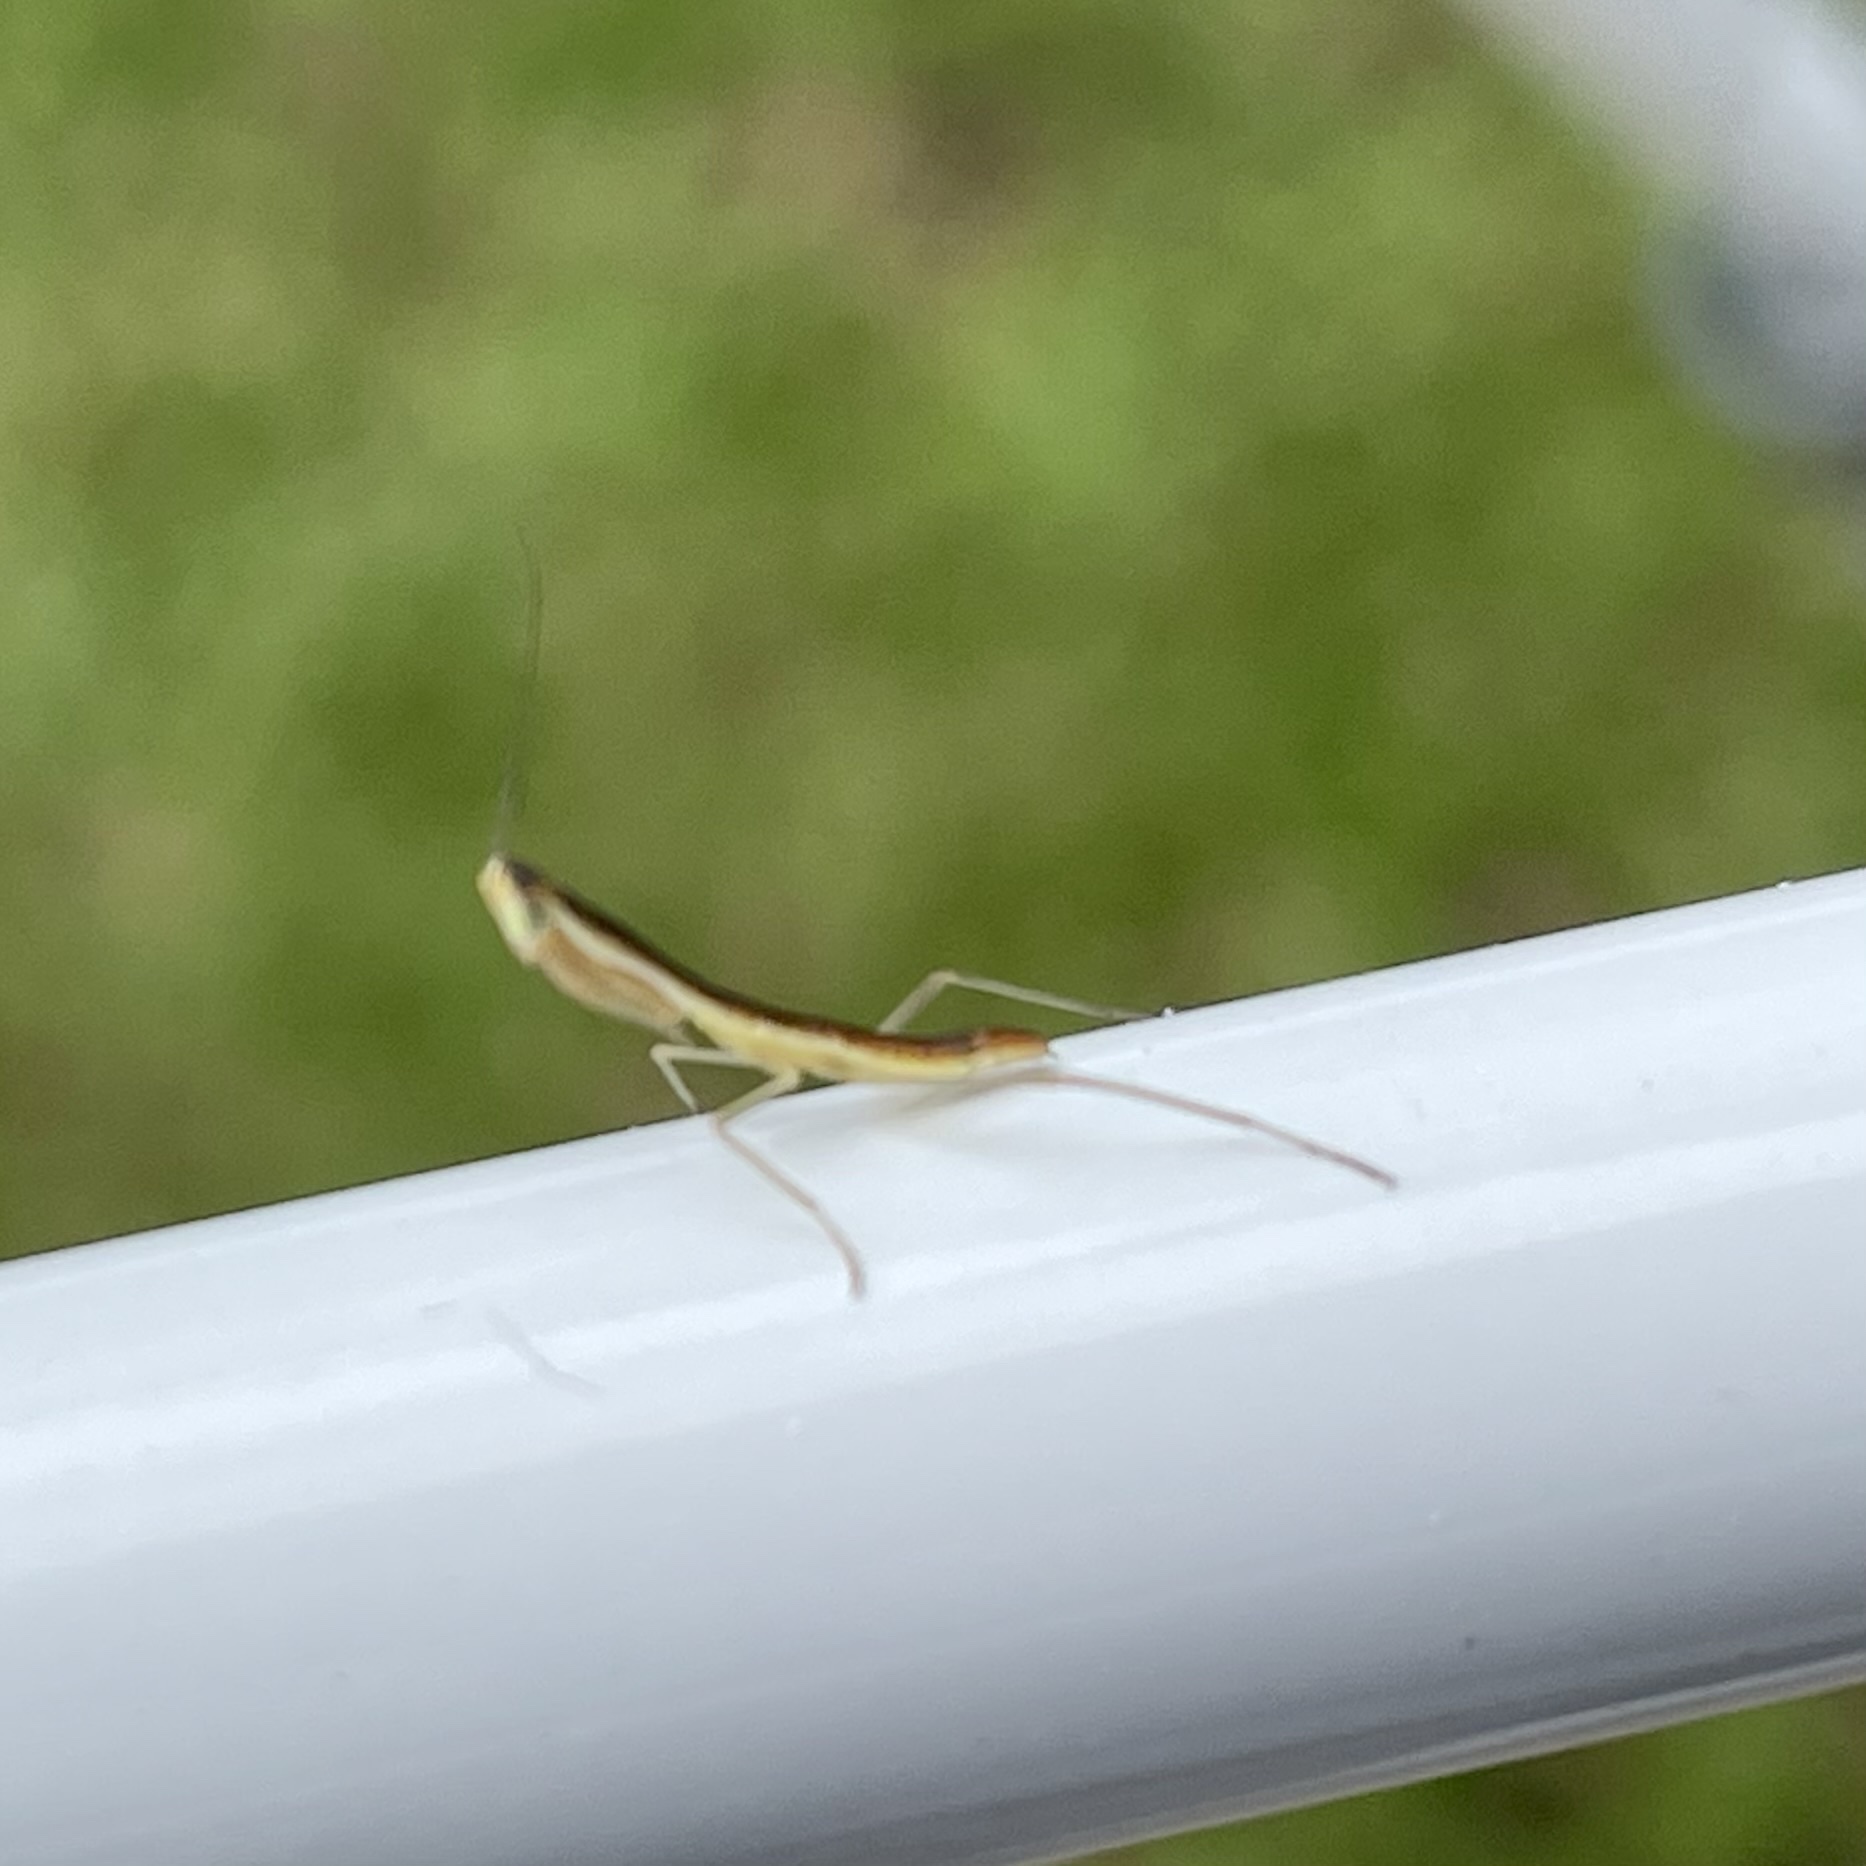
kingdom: Animalia
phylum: Arthropoda
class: Insecta
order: Mantodea
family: Mantidae
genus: Orthodera
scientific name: Orthodera ministralis
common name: Mantis
